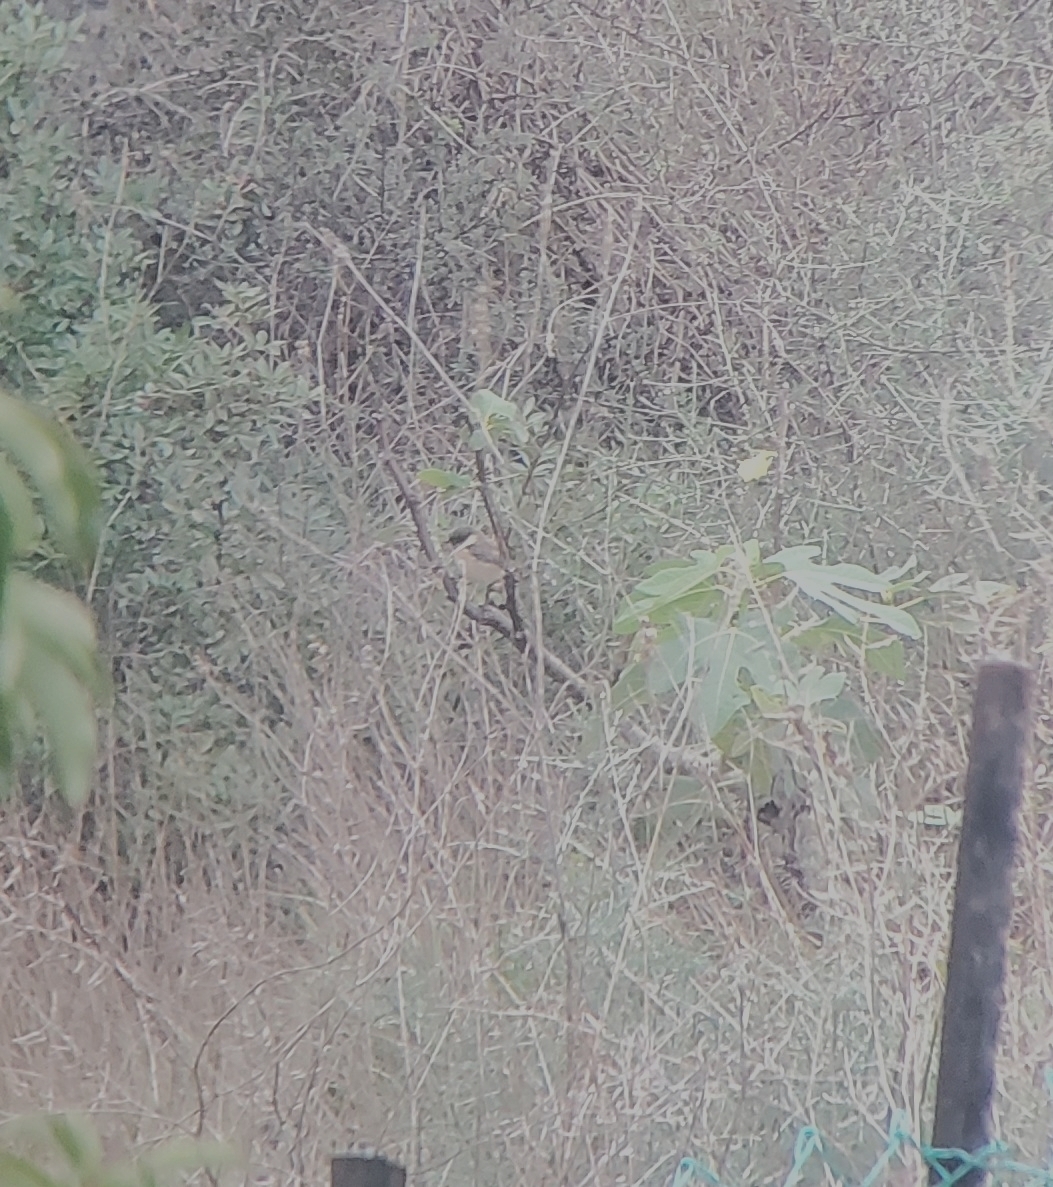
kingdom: Animalia
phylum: Chordata
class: Aves
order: Passeriformes
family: Muscicapidae
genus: Saxicola
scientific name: Saxicola rubicola
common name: European stonechat
